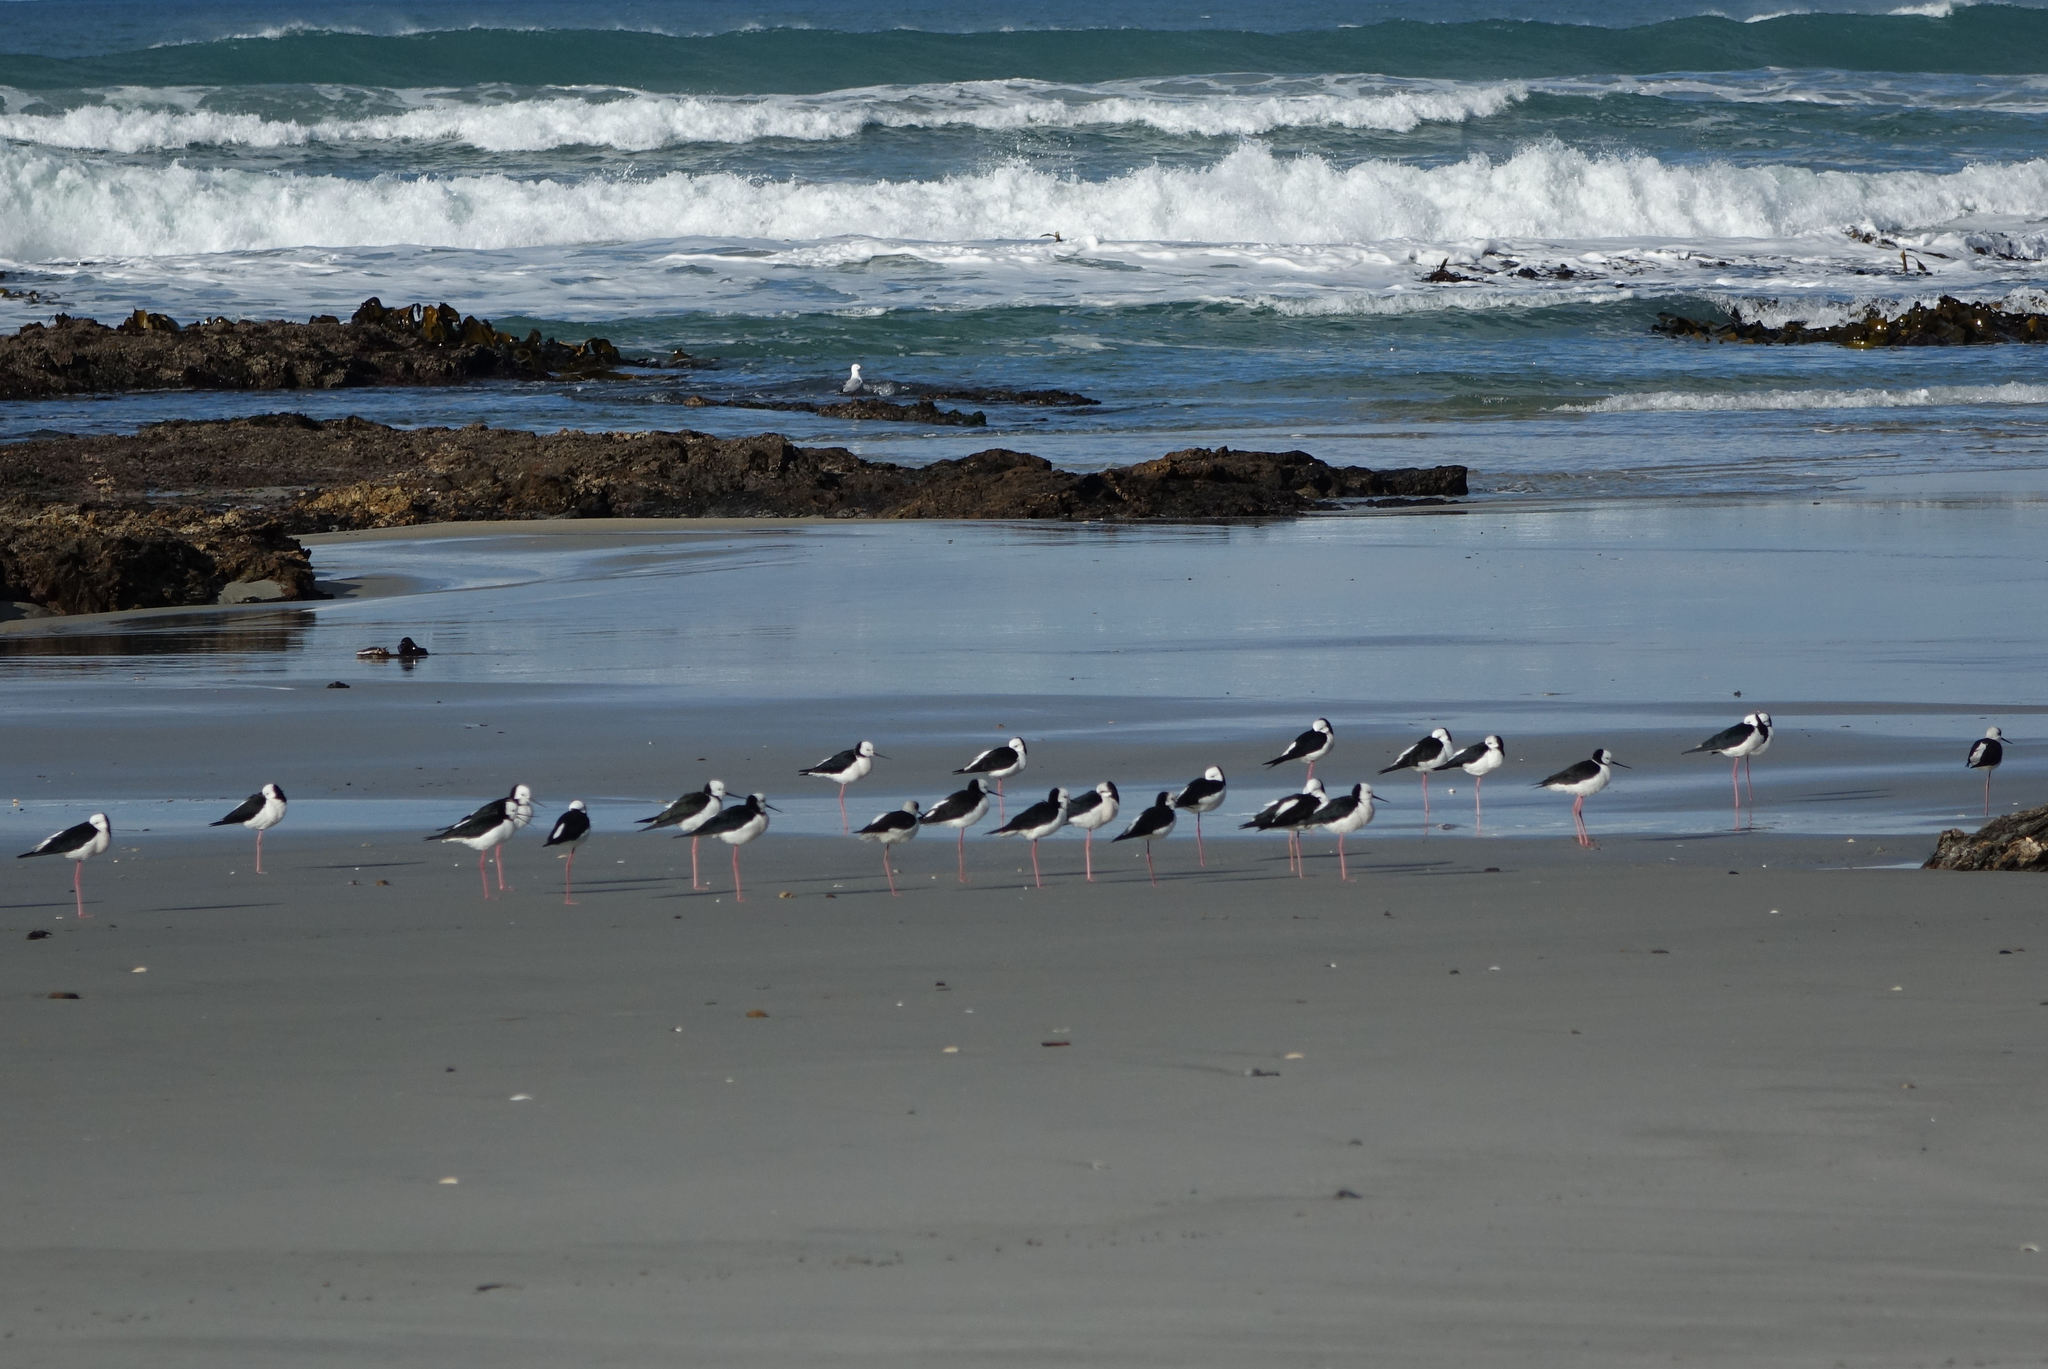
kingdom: Animalia
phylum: Chordata
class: Aves
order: Charadriiformes
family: Recurvirostridae
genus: Himantopus
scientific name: Himantopus leucocephalus
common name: White-headed stilt
